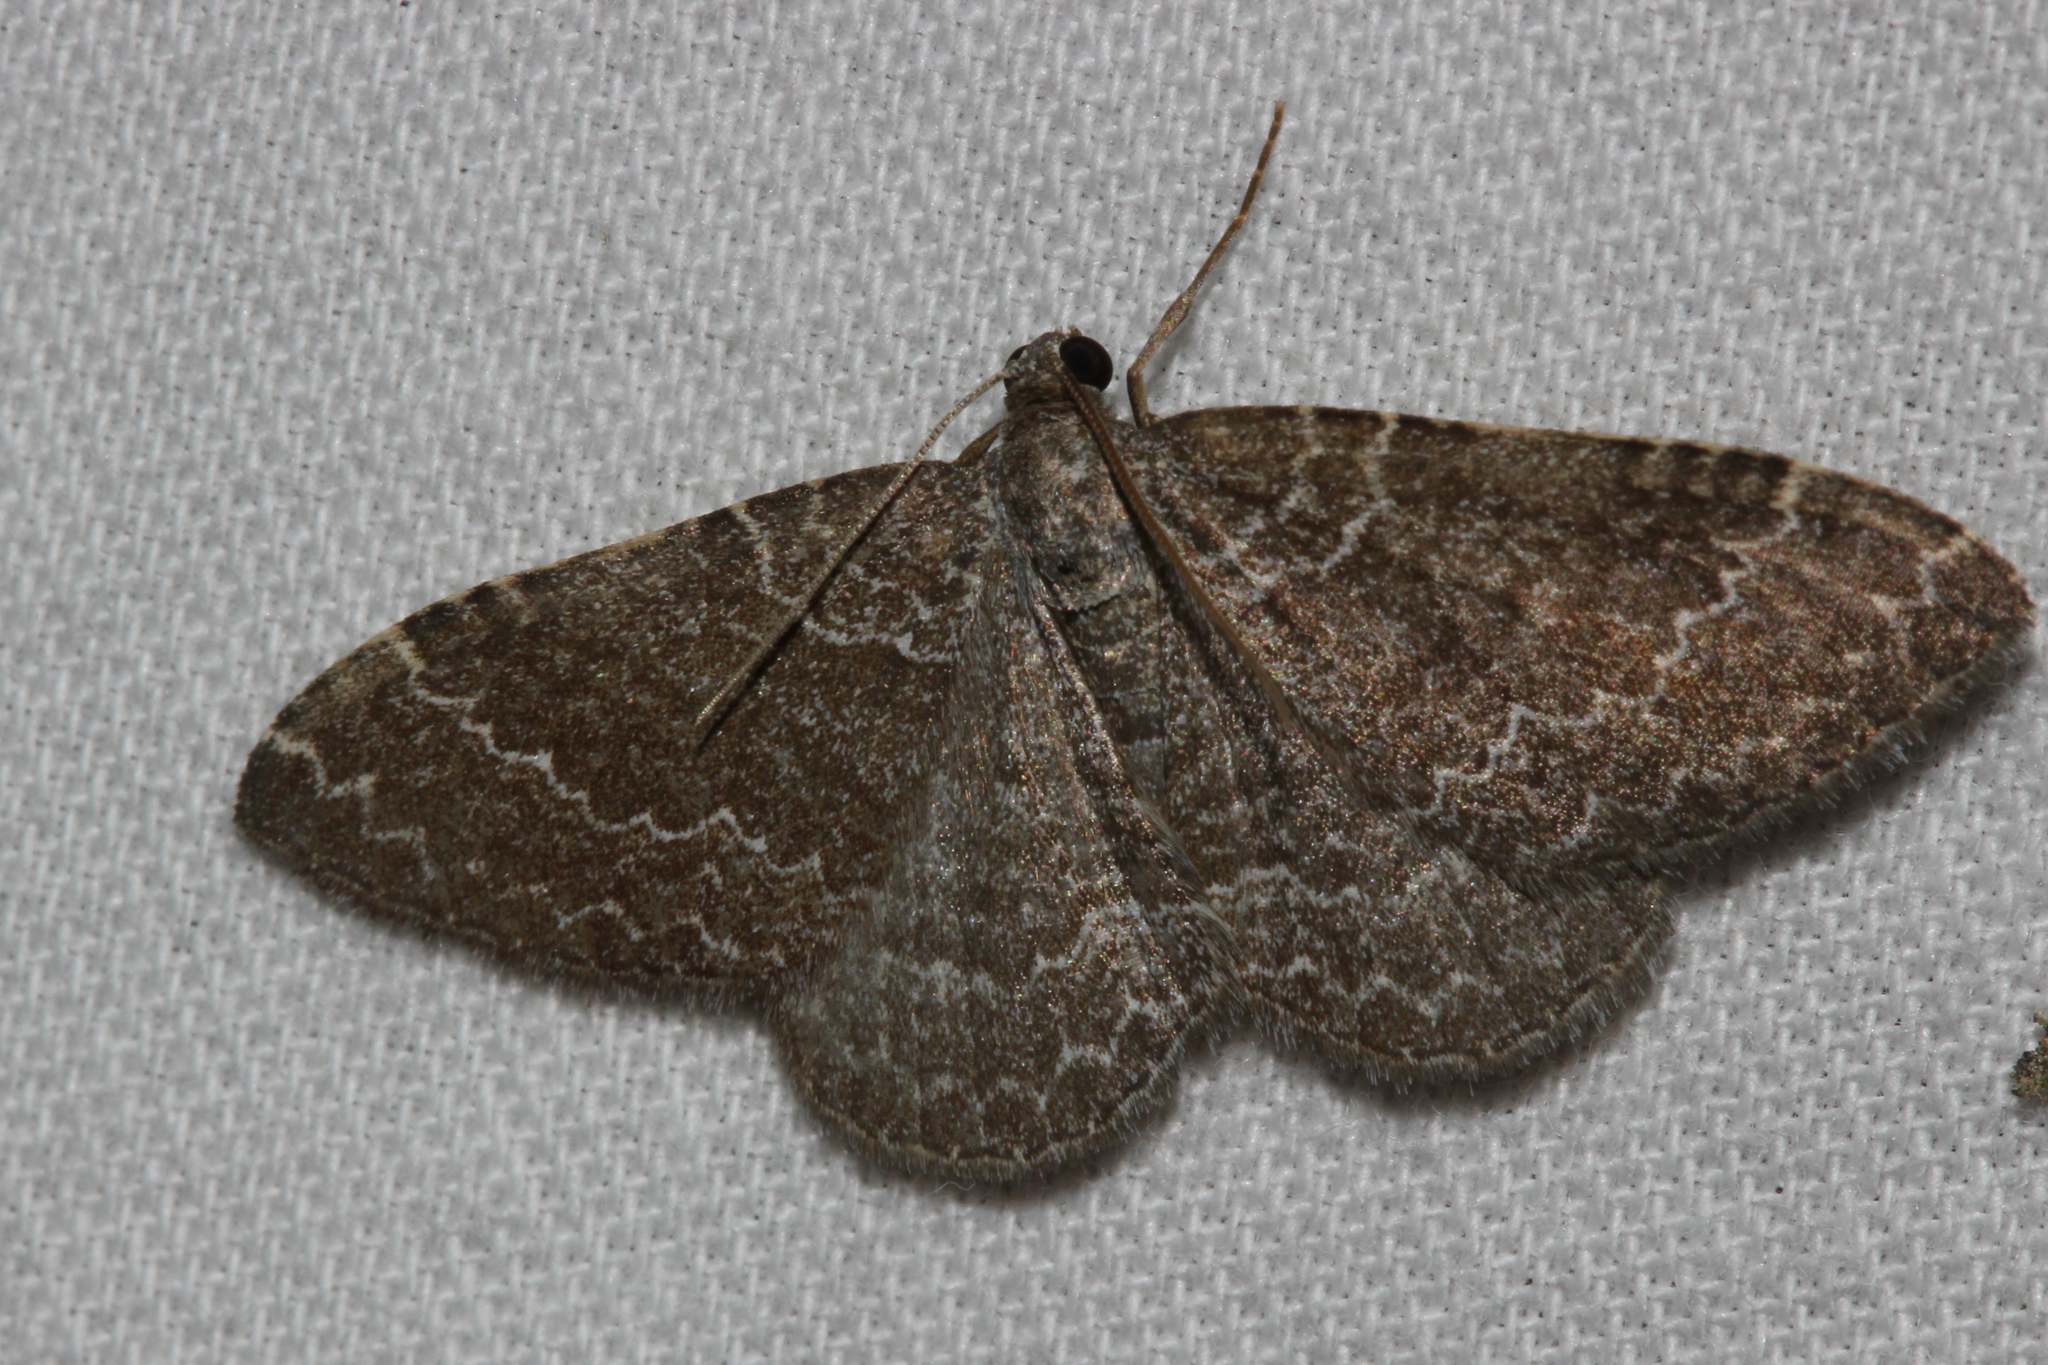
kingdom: Animalia
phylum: Arthropoda
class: Insecta
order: Lepidoptera
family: Geometridae
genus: Cataclysme
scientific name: Cataclysme riguata
